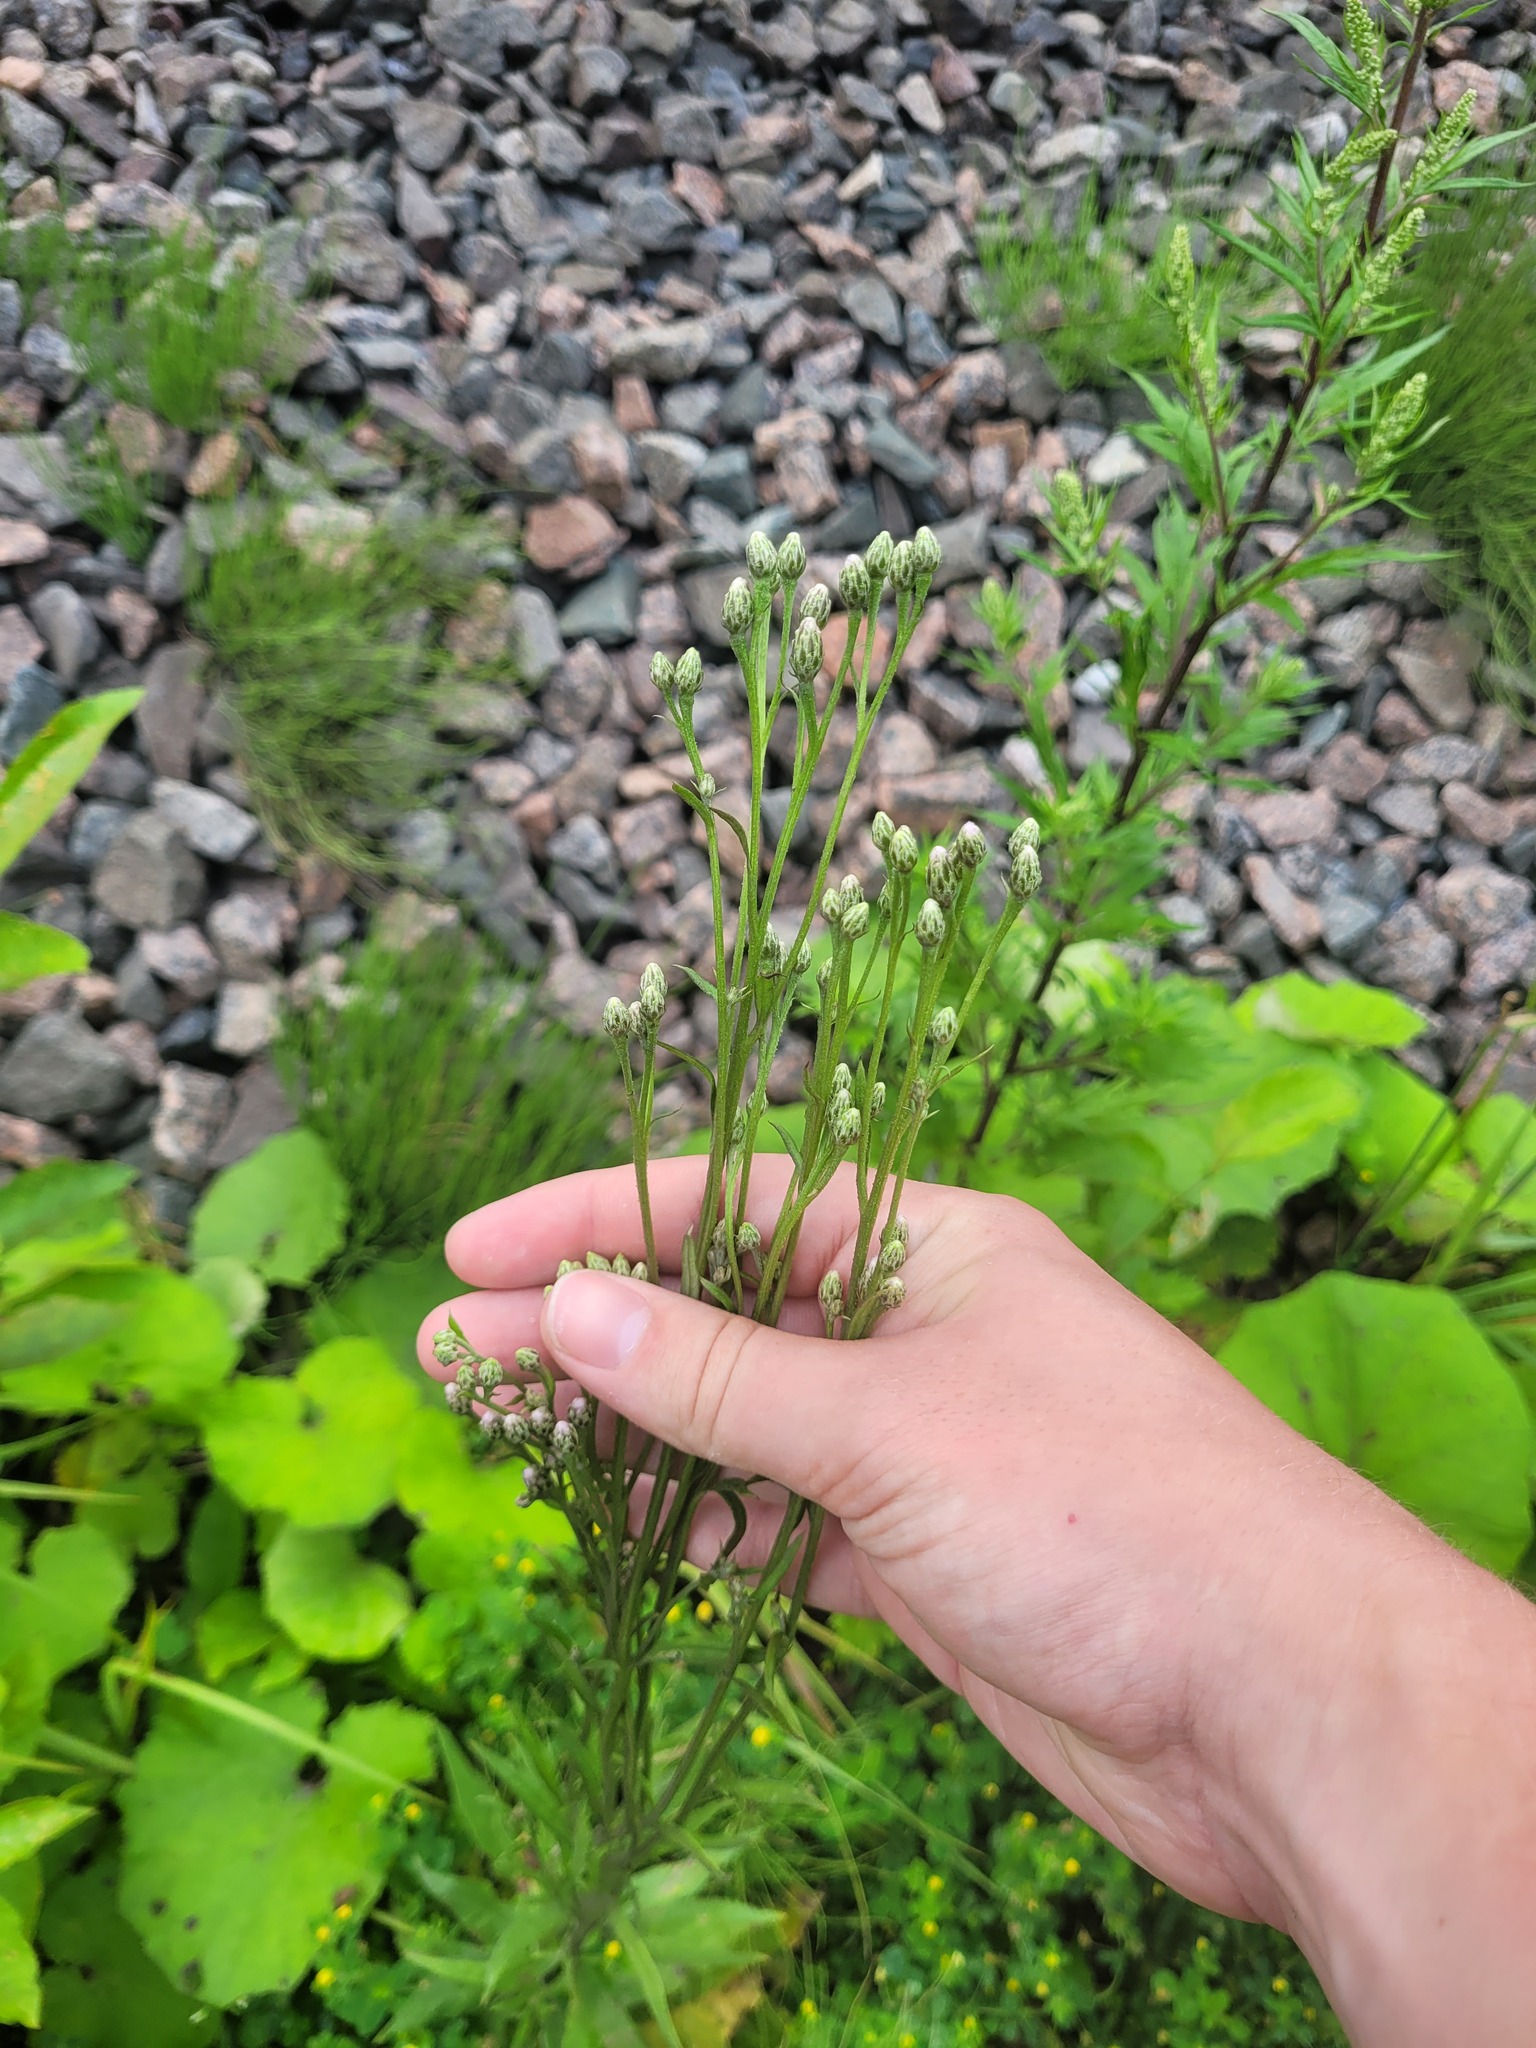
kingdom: Plantae
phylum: Tracheophyta
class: Magnoliopsida
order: Asterales
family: Asteraceae
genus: Saussurea
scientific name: Saussurea amara
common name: Alberta sawwort
